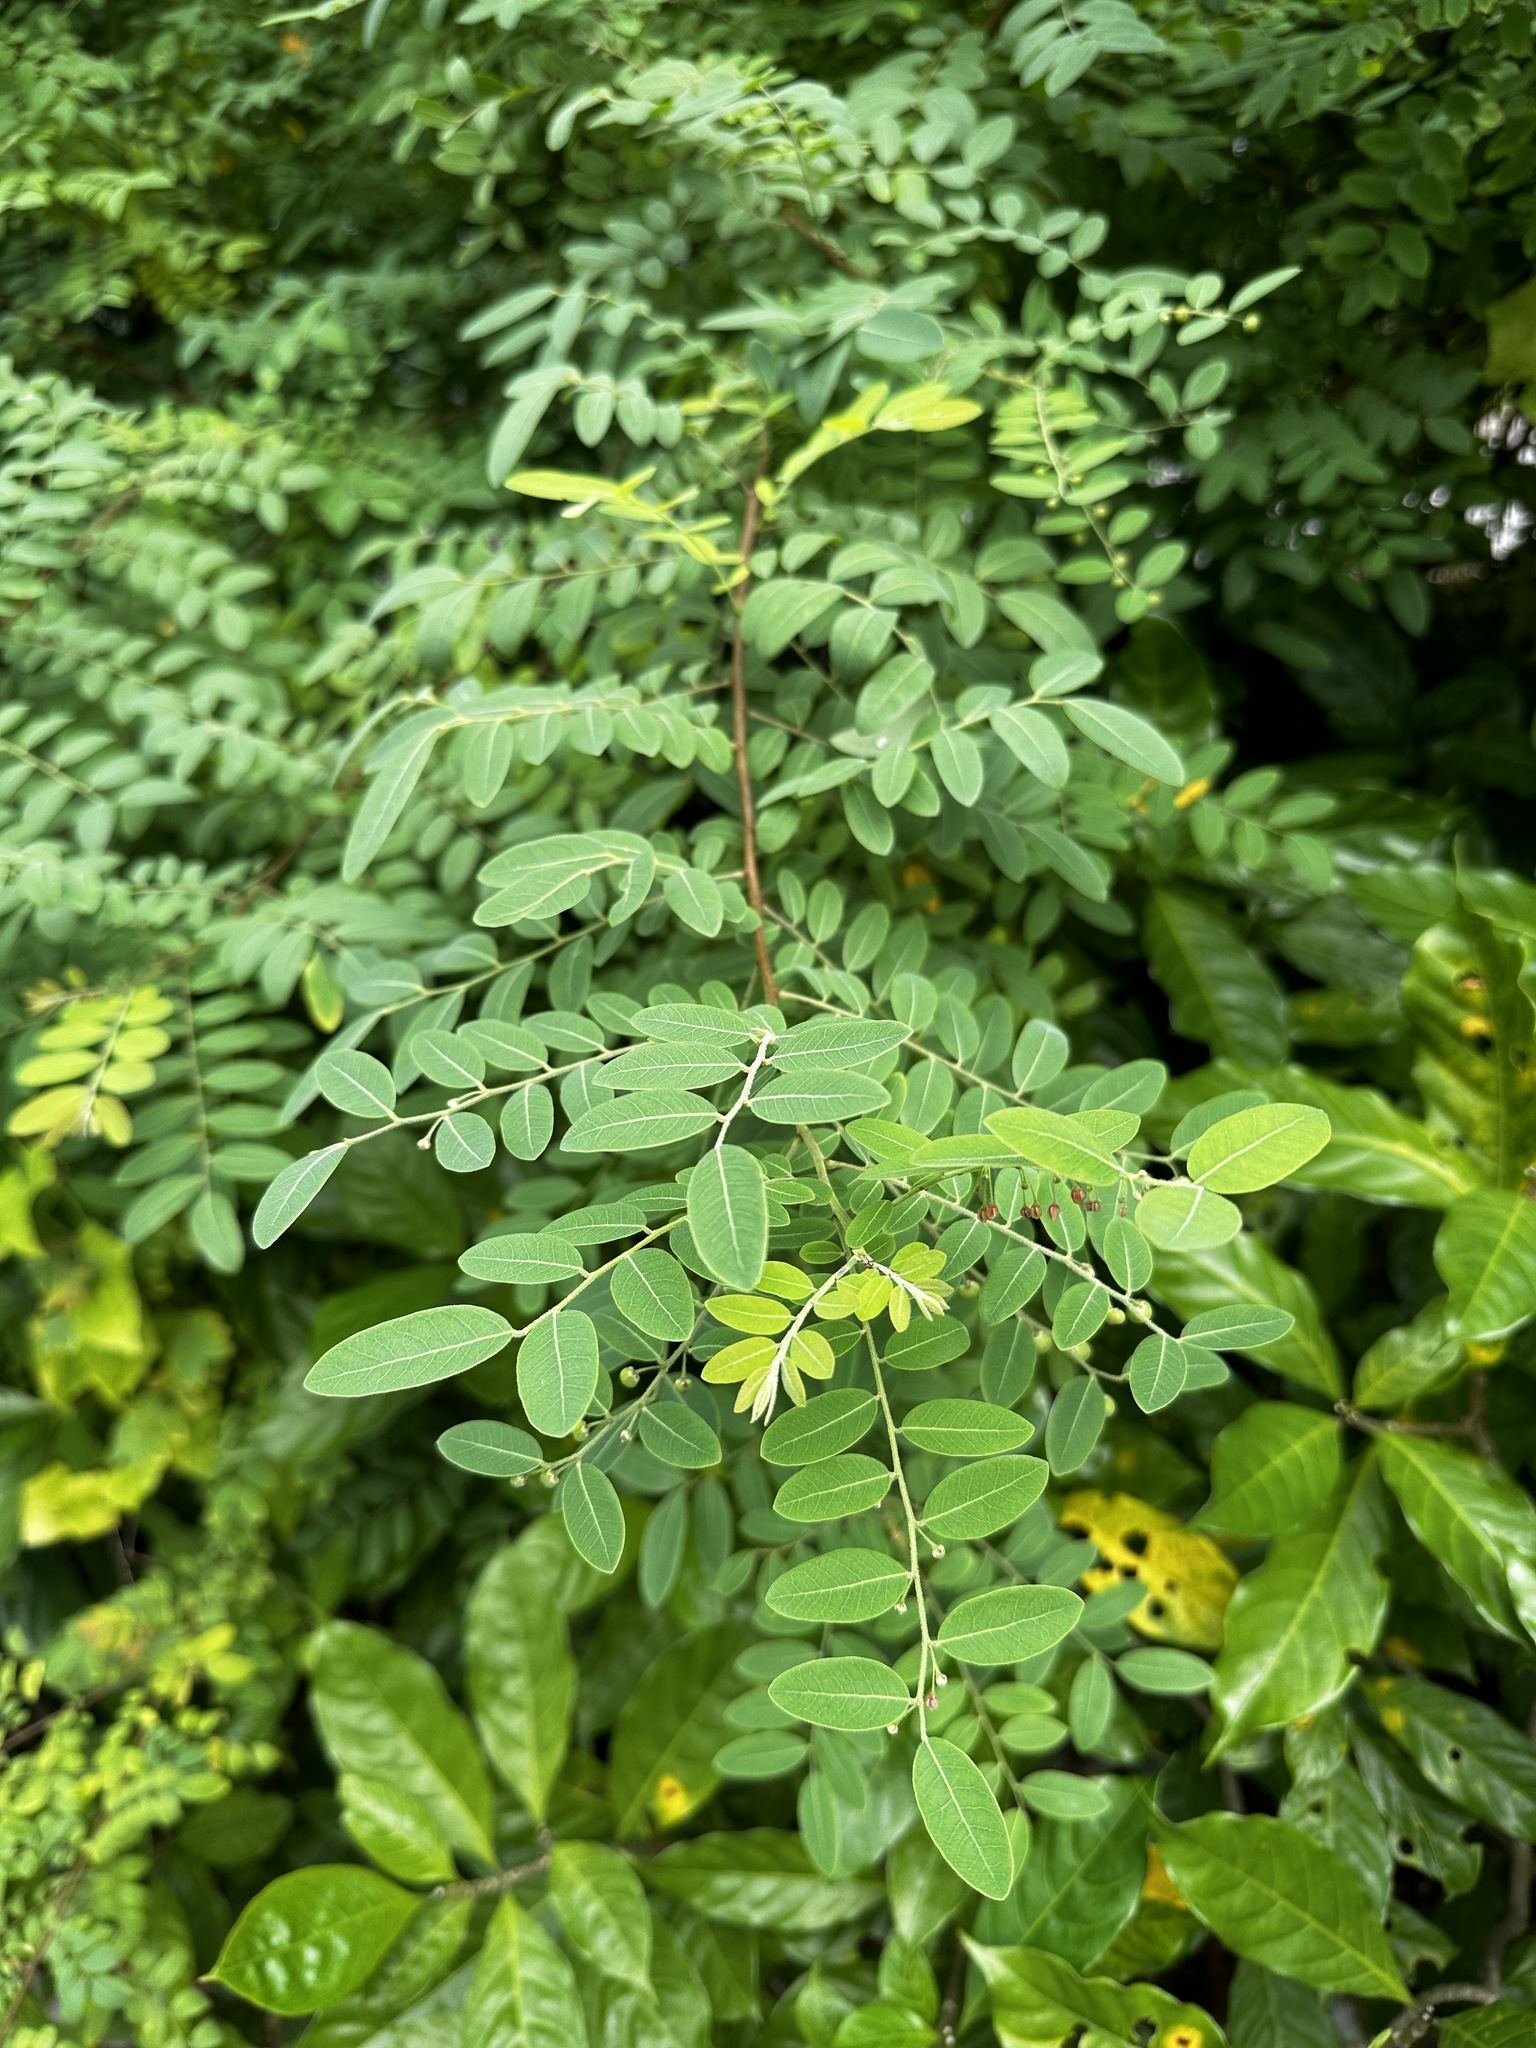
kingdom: Plantae
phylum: Tracheophyta
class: Magnoliopsida
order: Malpighiales
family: Phyllanthaceae
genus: Phyllanthus
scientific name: Phyllanthus reticulatus
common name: Potato bush
